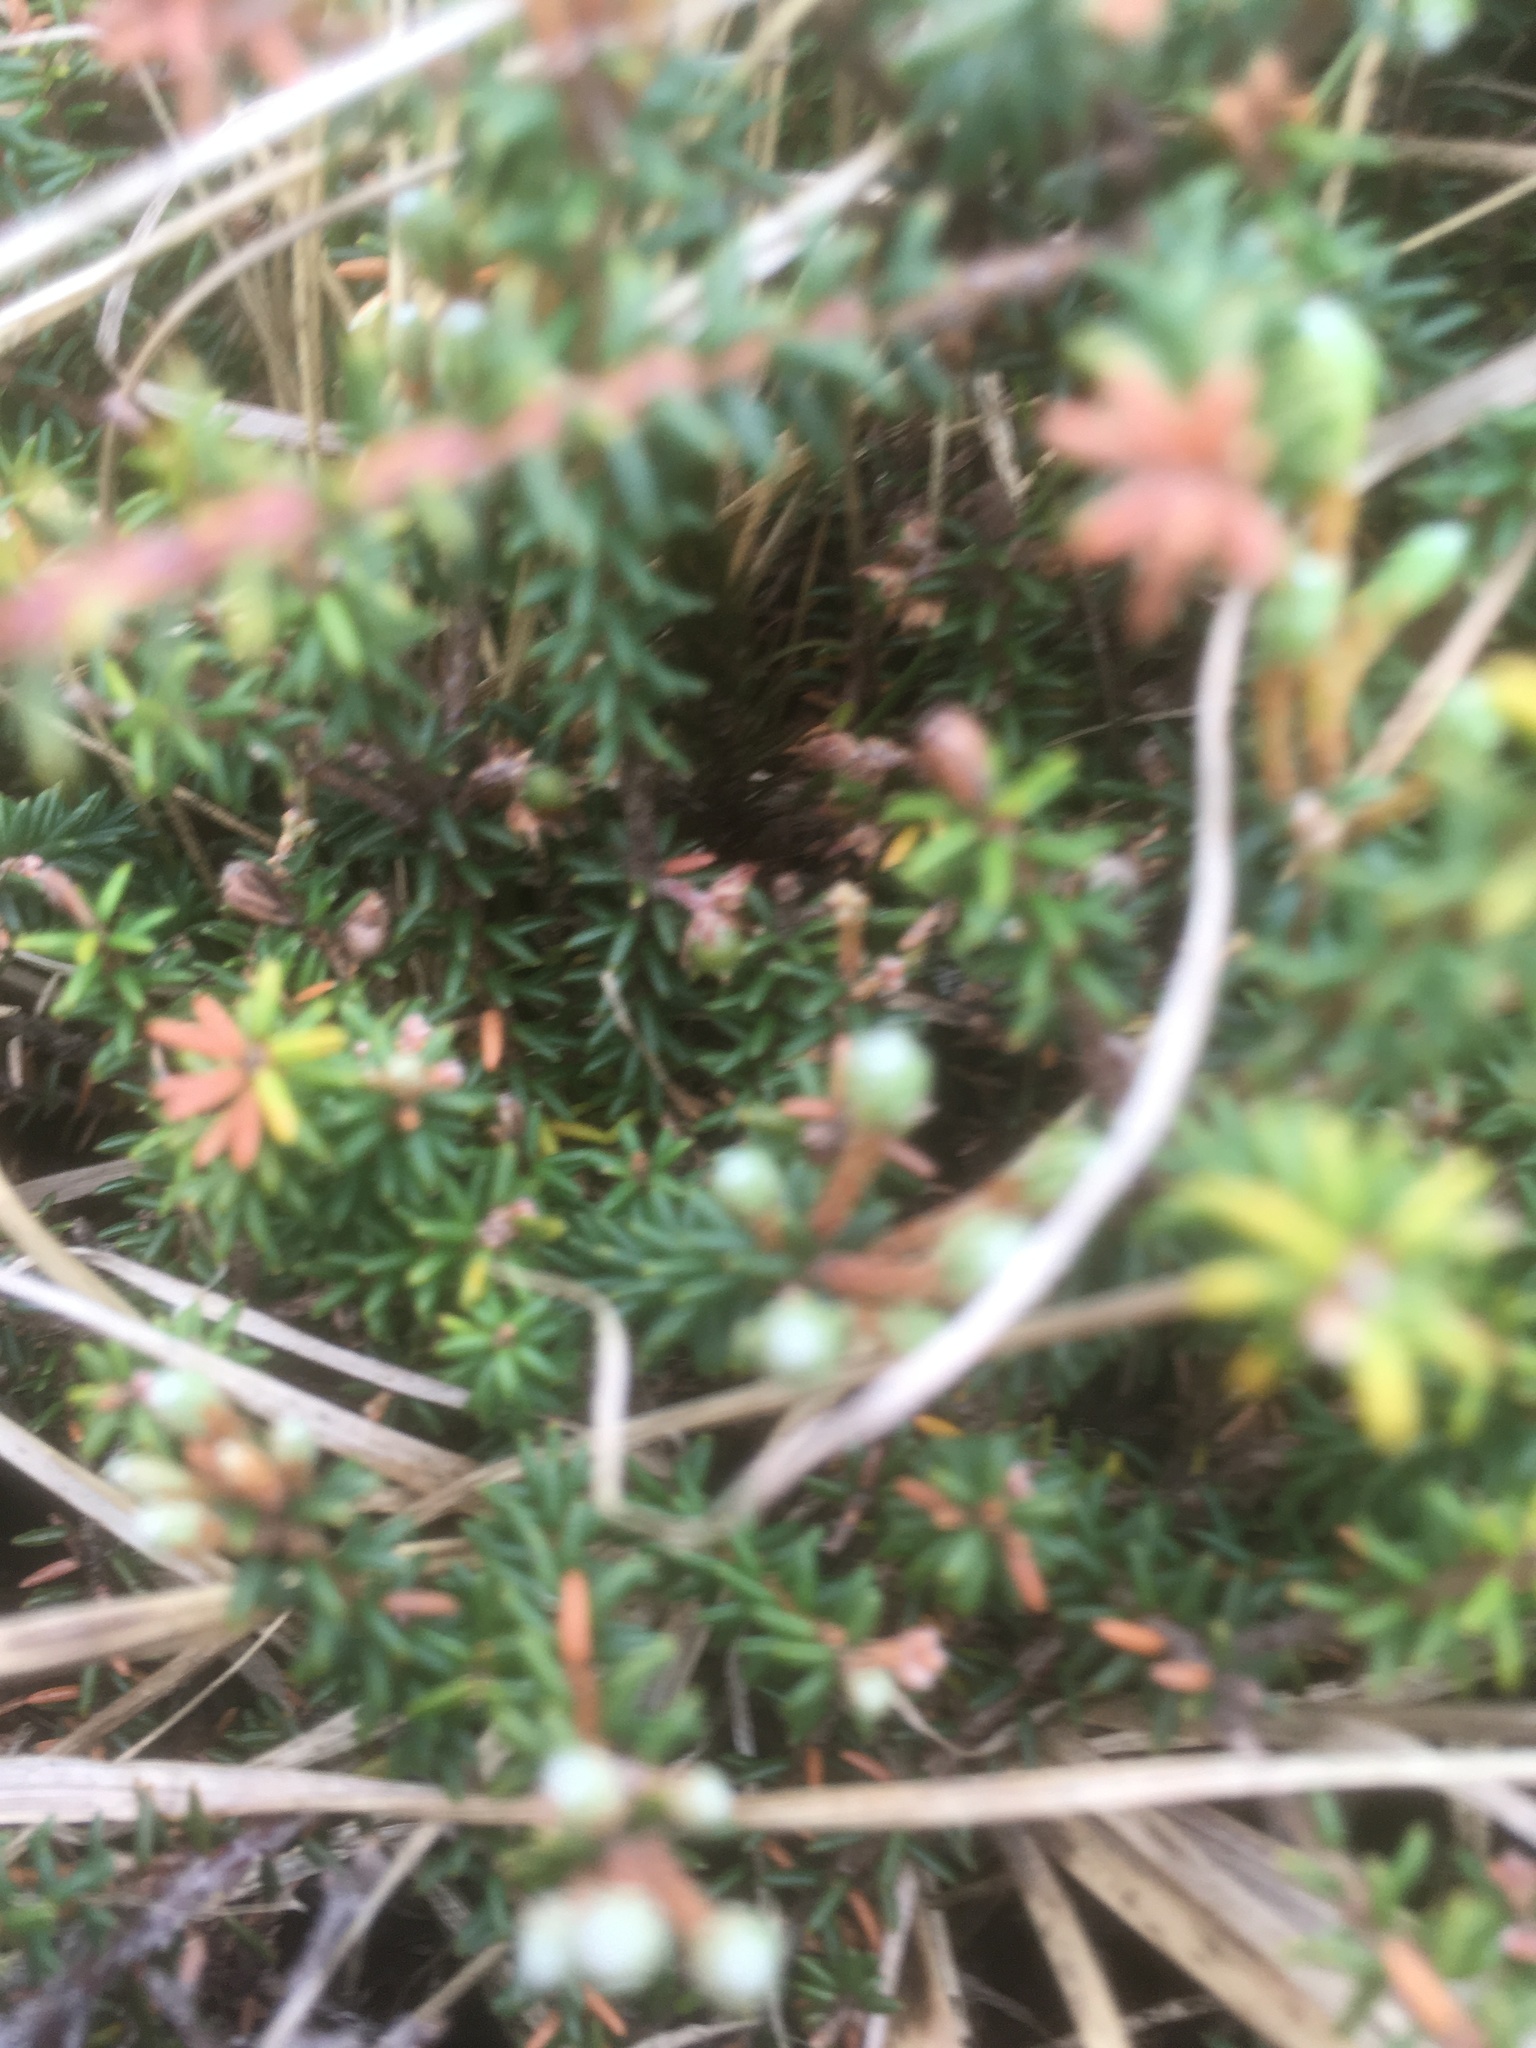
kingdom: Plantae
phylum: Tracheophyta
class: Magnoliopsida
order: Ericales
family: Ericaceae
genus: Androstoma
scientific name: Androstoma empetrifolia
